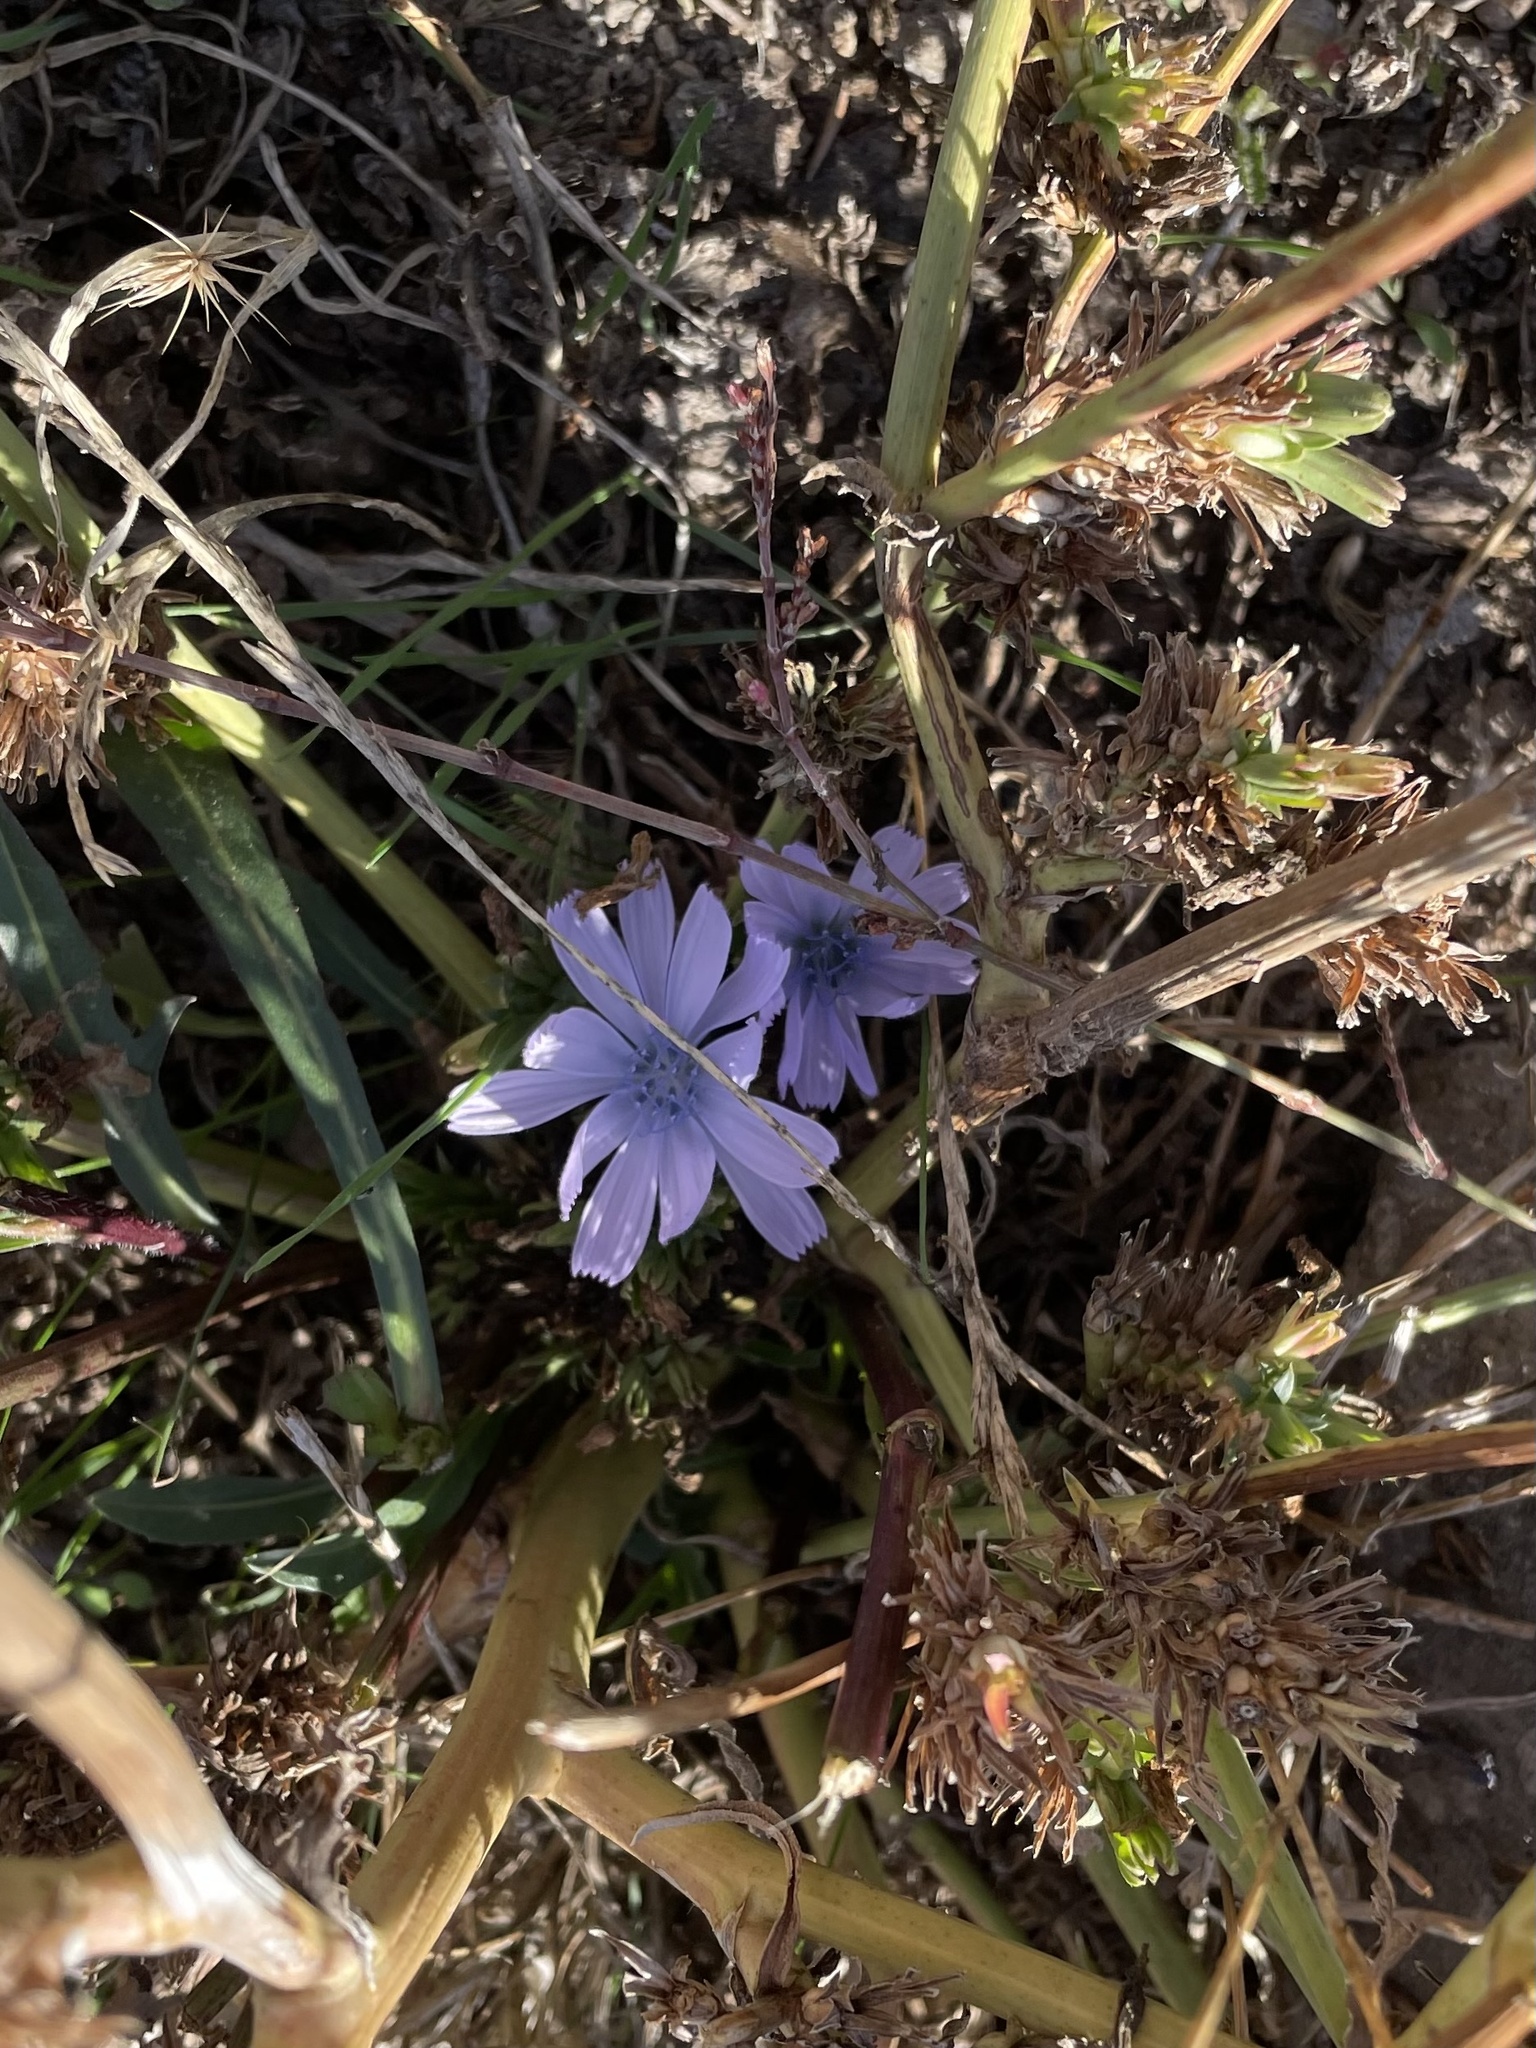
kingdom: Plantae
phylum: Tracheophyta
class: Magnoliopsida
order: Asterales
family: Asteraceae
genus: Cichorium
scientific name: Cichorium intybus
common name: Chicory
